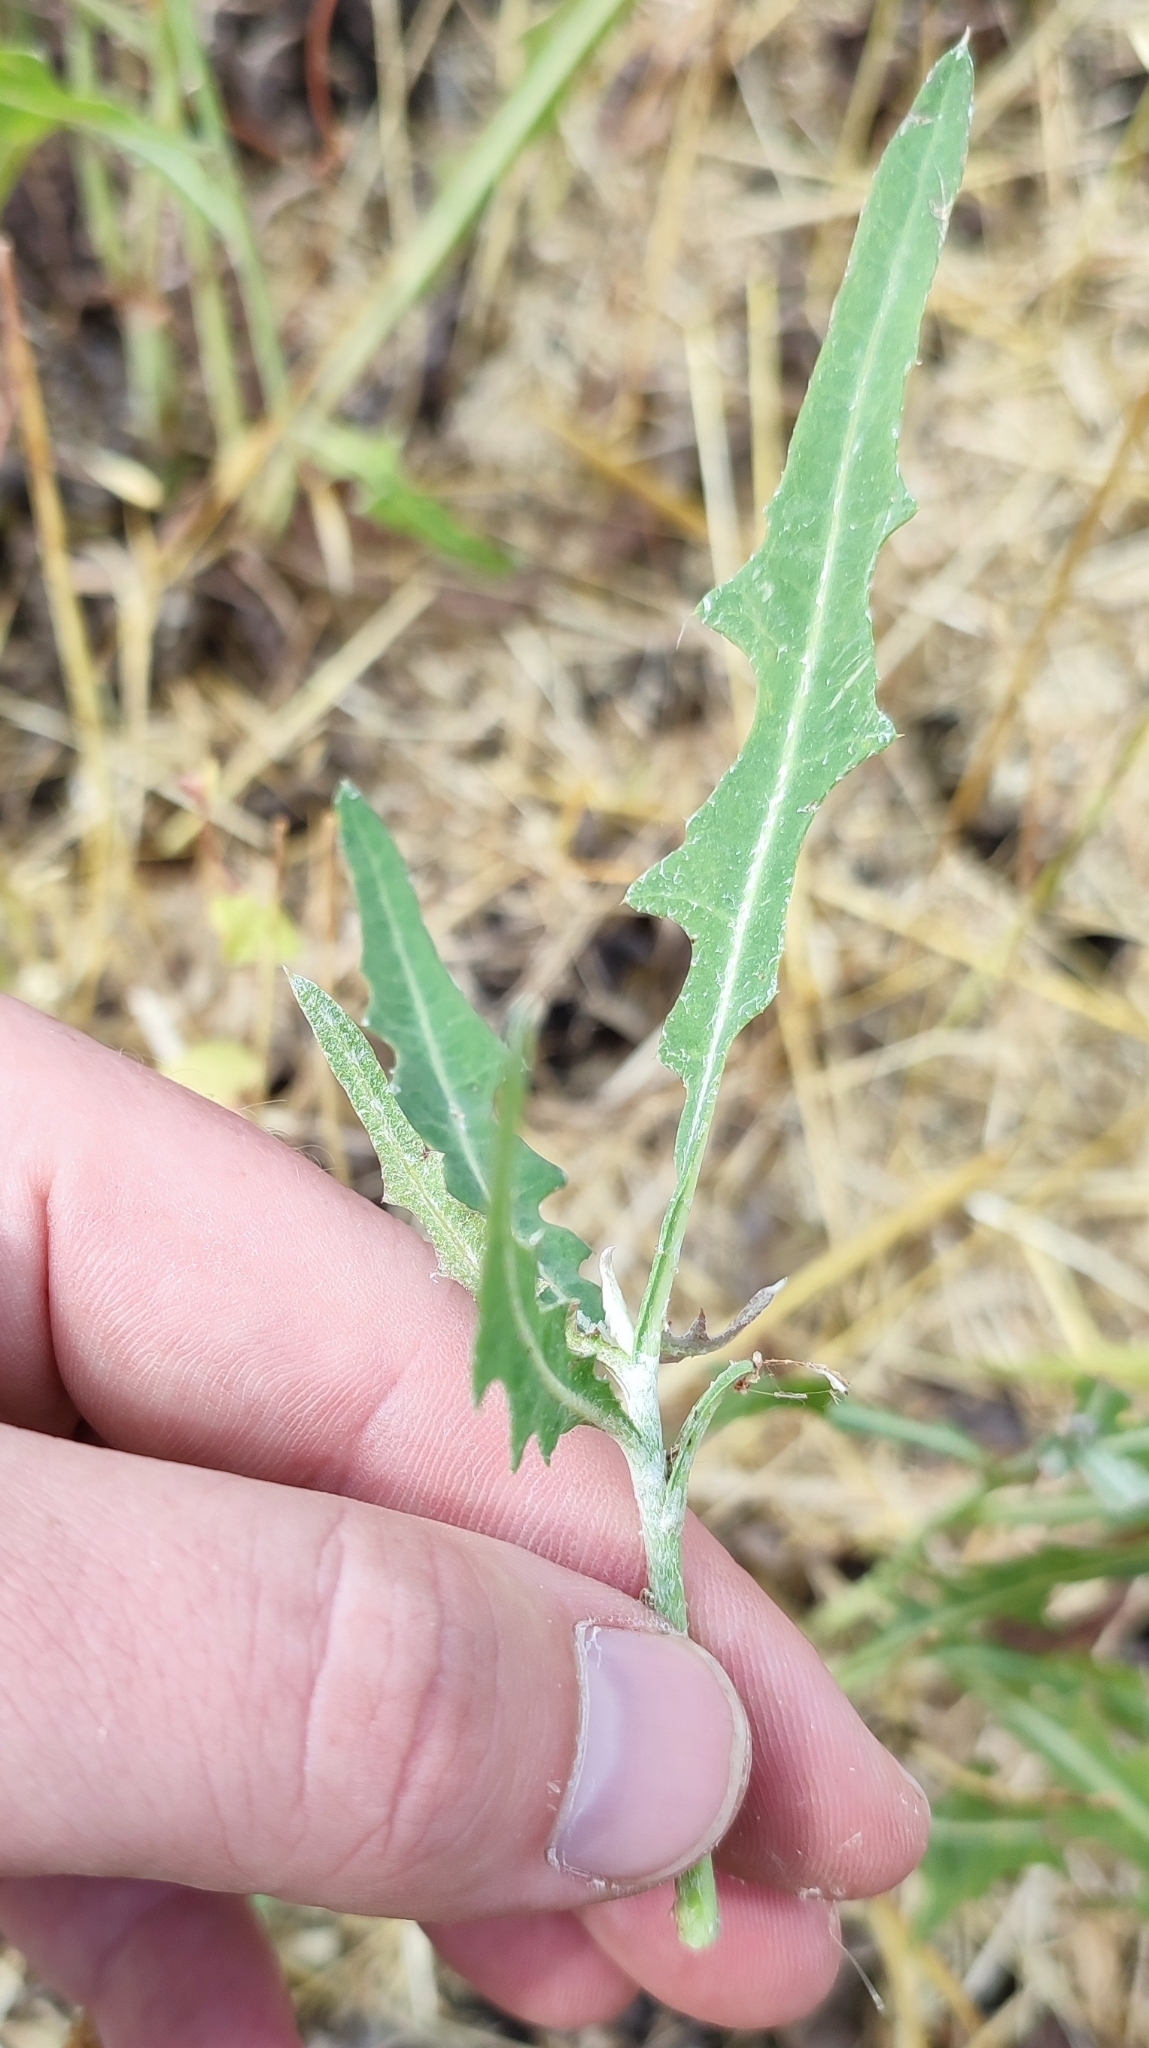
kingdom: Plantae
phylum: Tracheophyta
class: Magnoliopsida
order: Asterales
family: Asteraceae
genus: Lactuca
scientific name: Lactuca tatarica
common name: Blue lettuce
